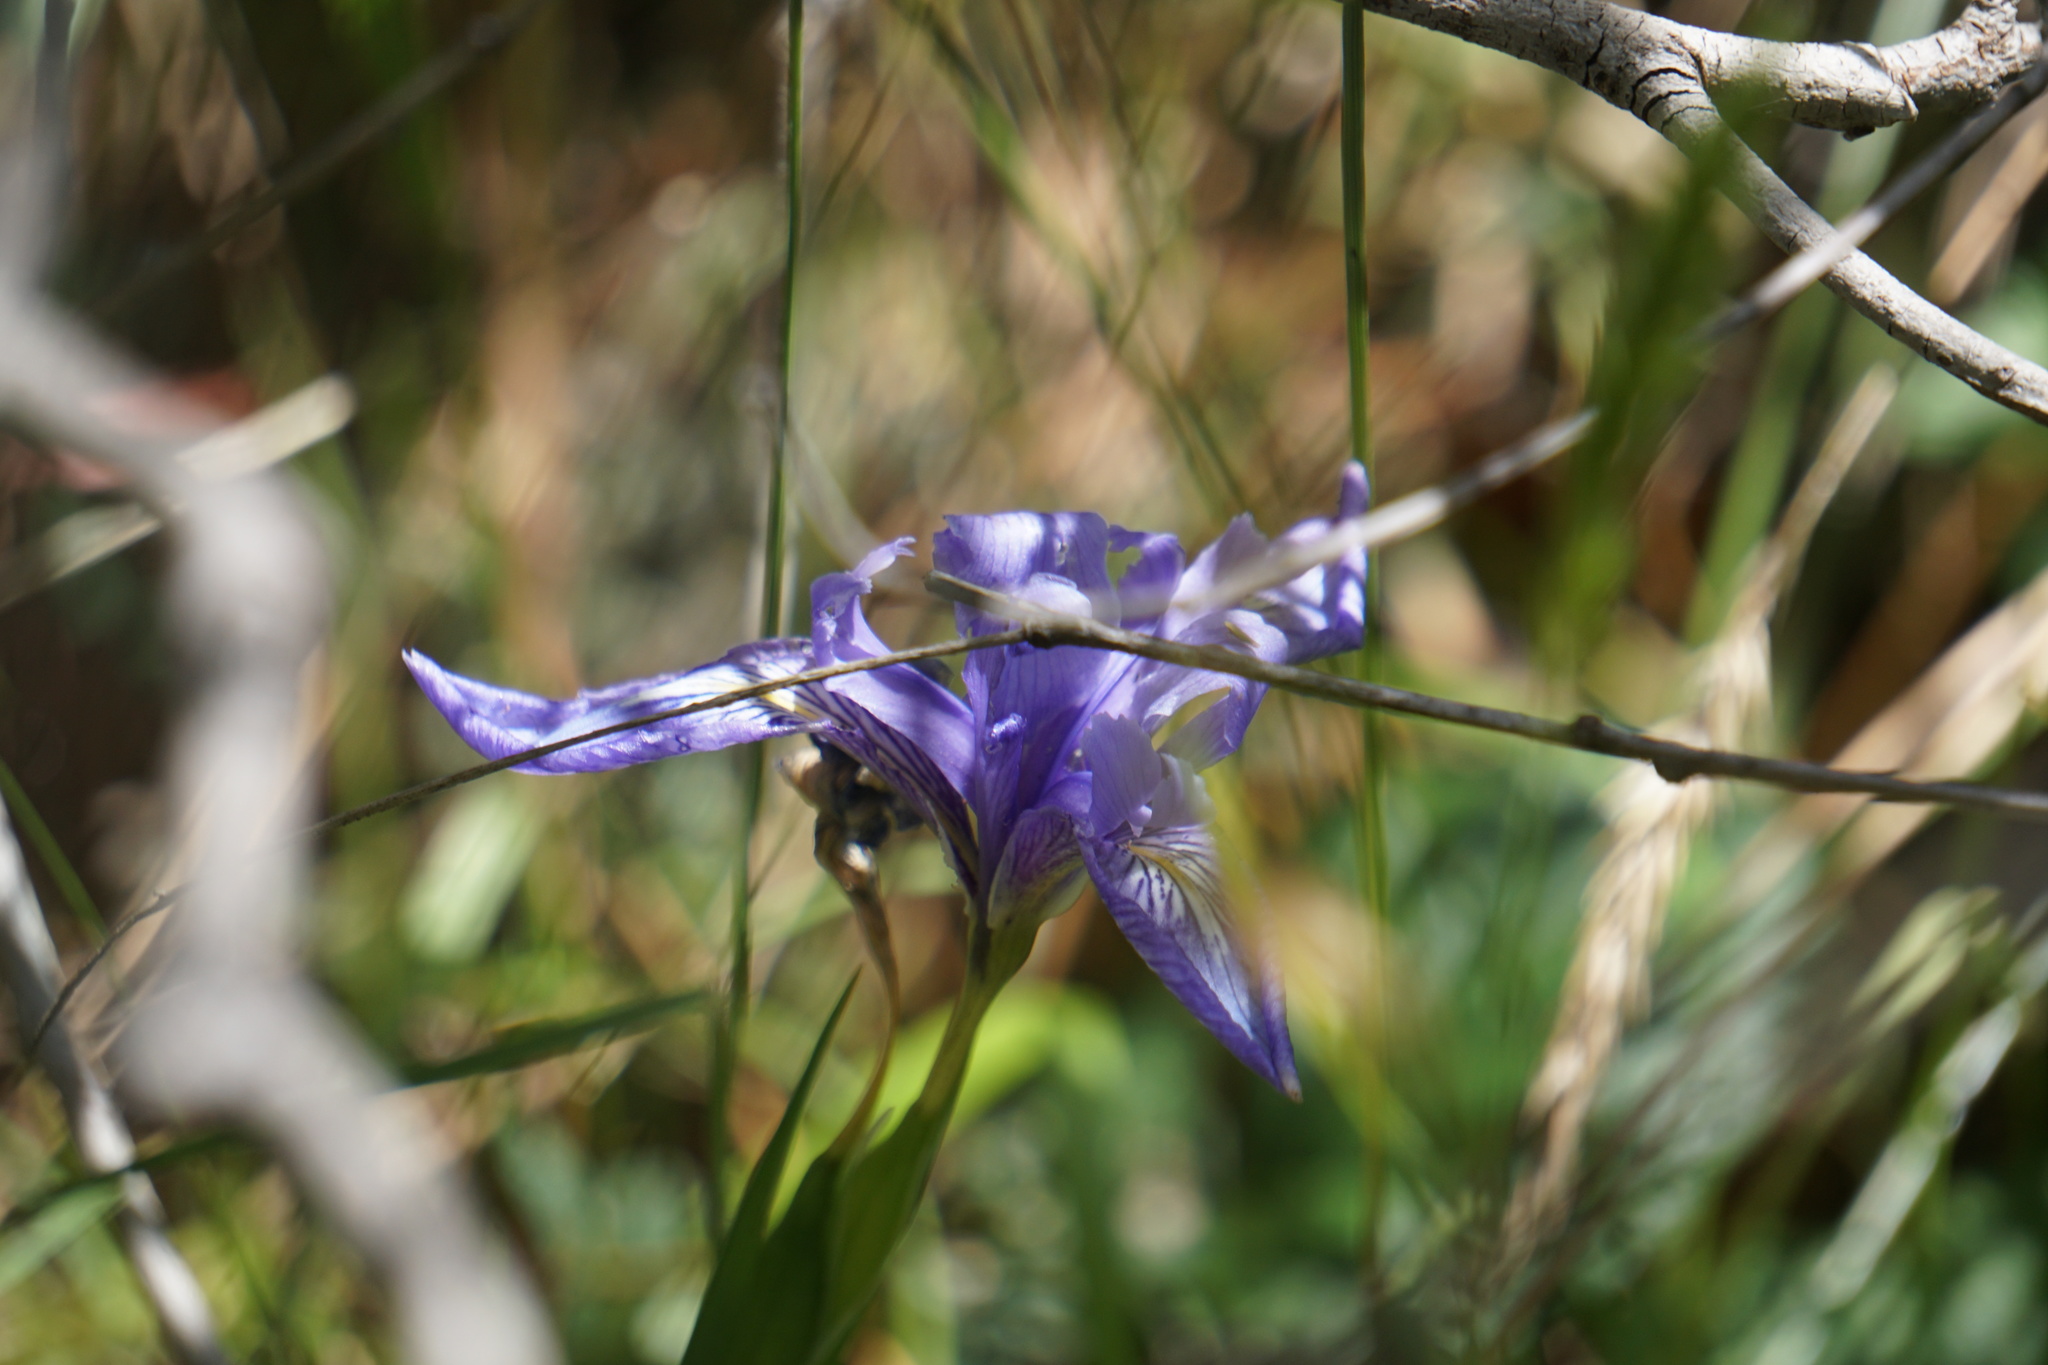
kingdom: Plantae
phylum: Tracheophyta
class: Liliopsida
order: Asparagales
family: Iridaceae
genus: Iris
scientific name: Iris douglasiana
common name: Marin iris
